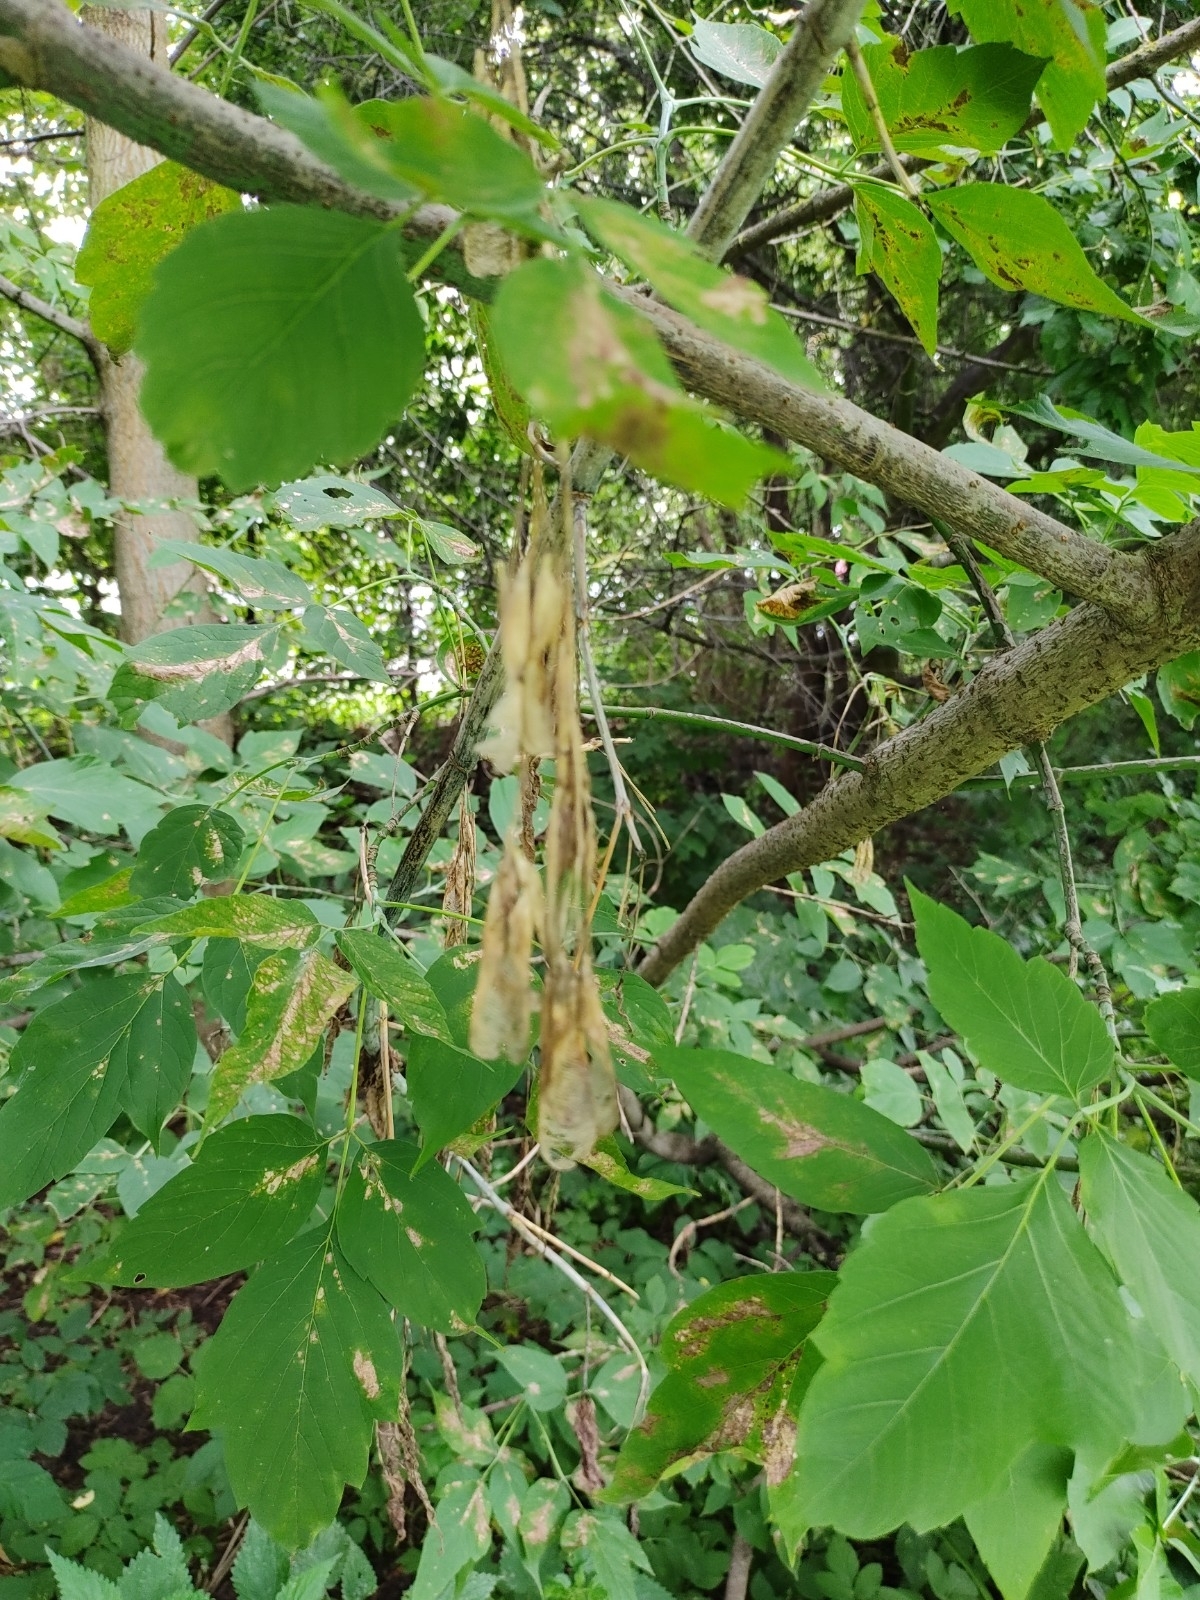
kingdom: Plantae
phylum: Tracheophyta
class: Magnoliopsida
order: Sapindales
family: Sapindaceae
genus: Acer
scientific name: Acer negundo
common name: Ashleaf maple
